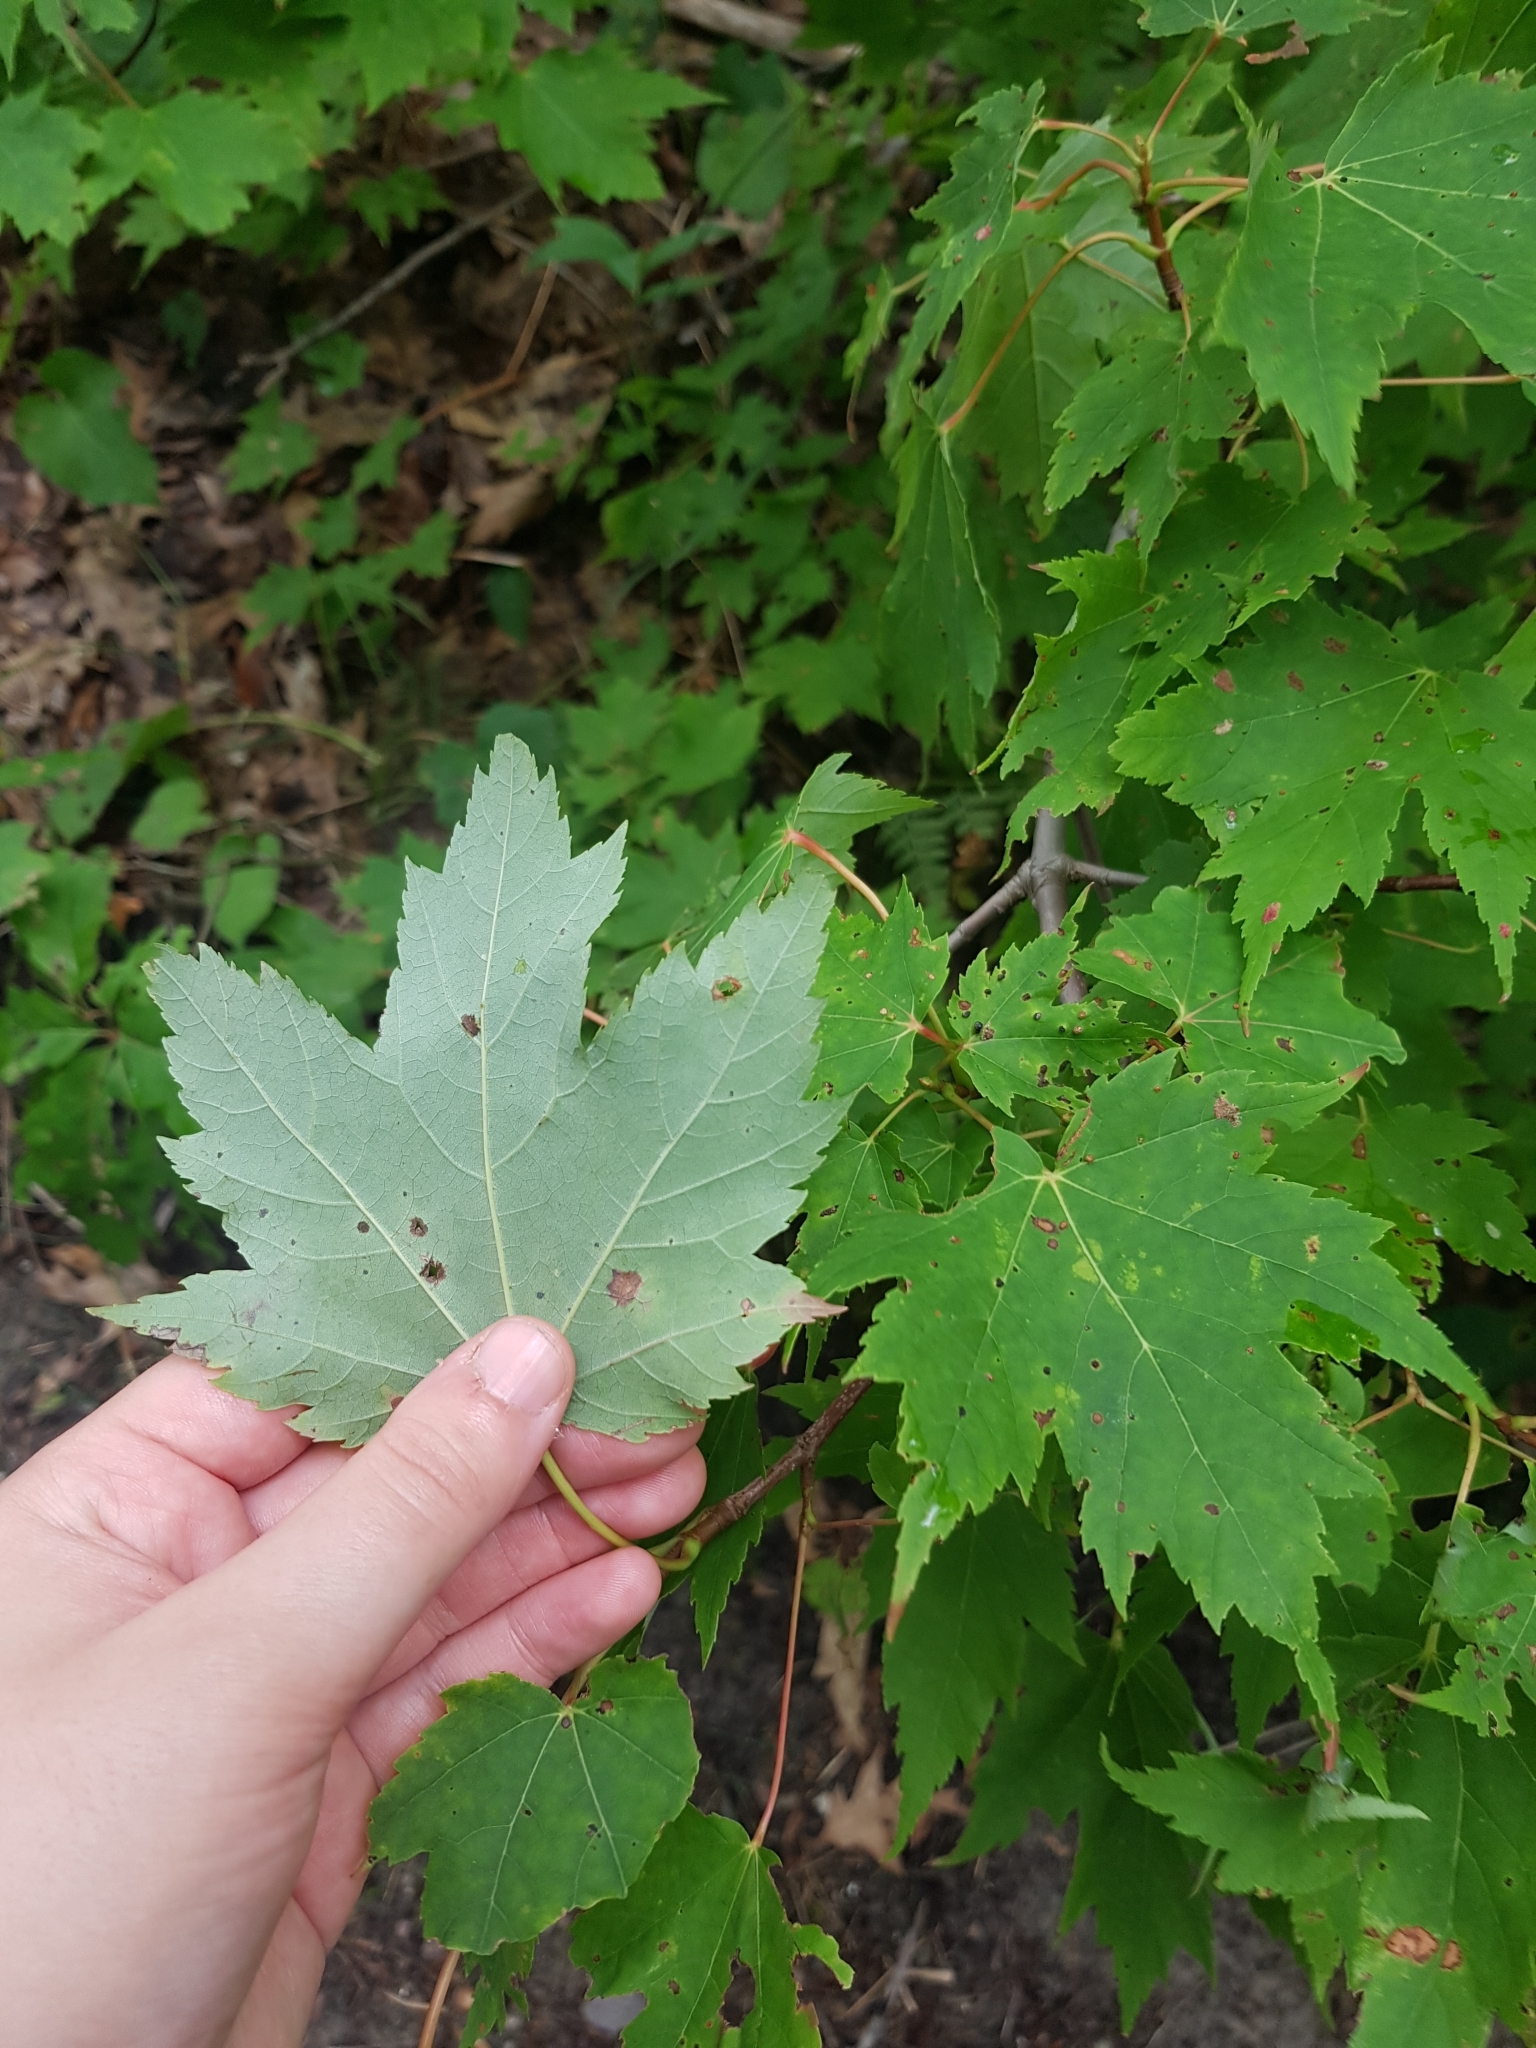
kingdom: Plantae
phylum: Tracheophyta
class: Magnoliopsida
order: Sapindales
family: Sapindaceae
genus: Acer
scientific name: Acer freemanii
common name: Freeman maple
